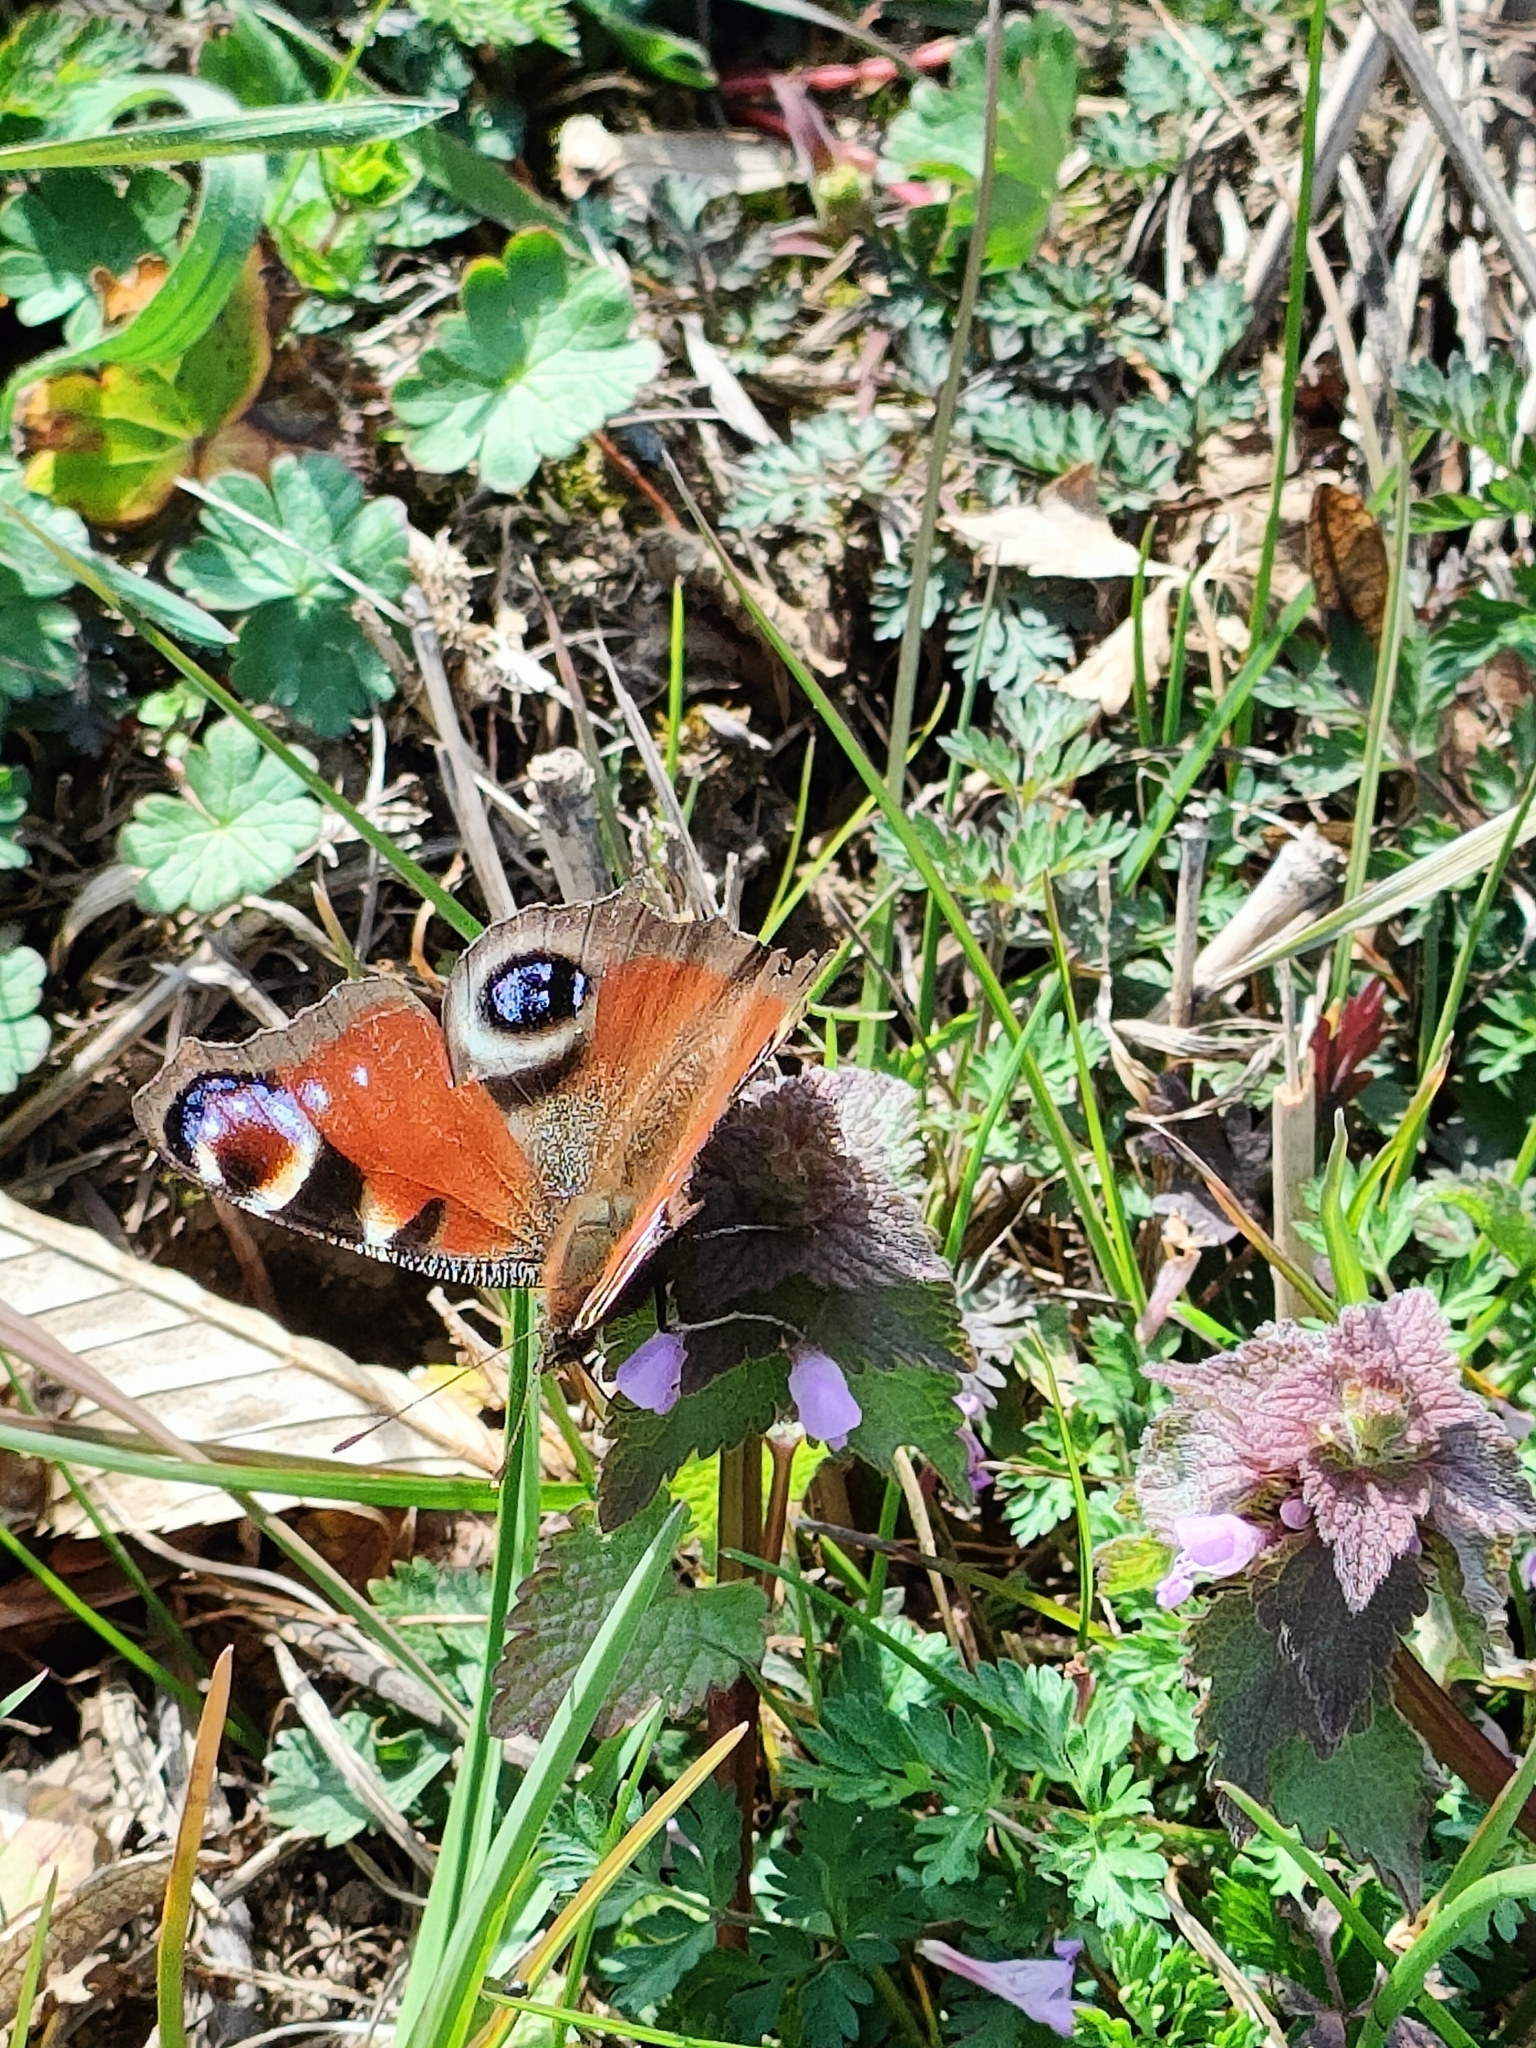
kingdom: Animalia
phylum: Arthropoda
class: Insecta
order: Lepidoptera
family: Nymphalidae
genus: Aglais
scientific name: Aglais io
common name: Peacock
